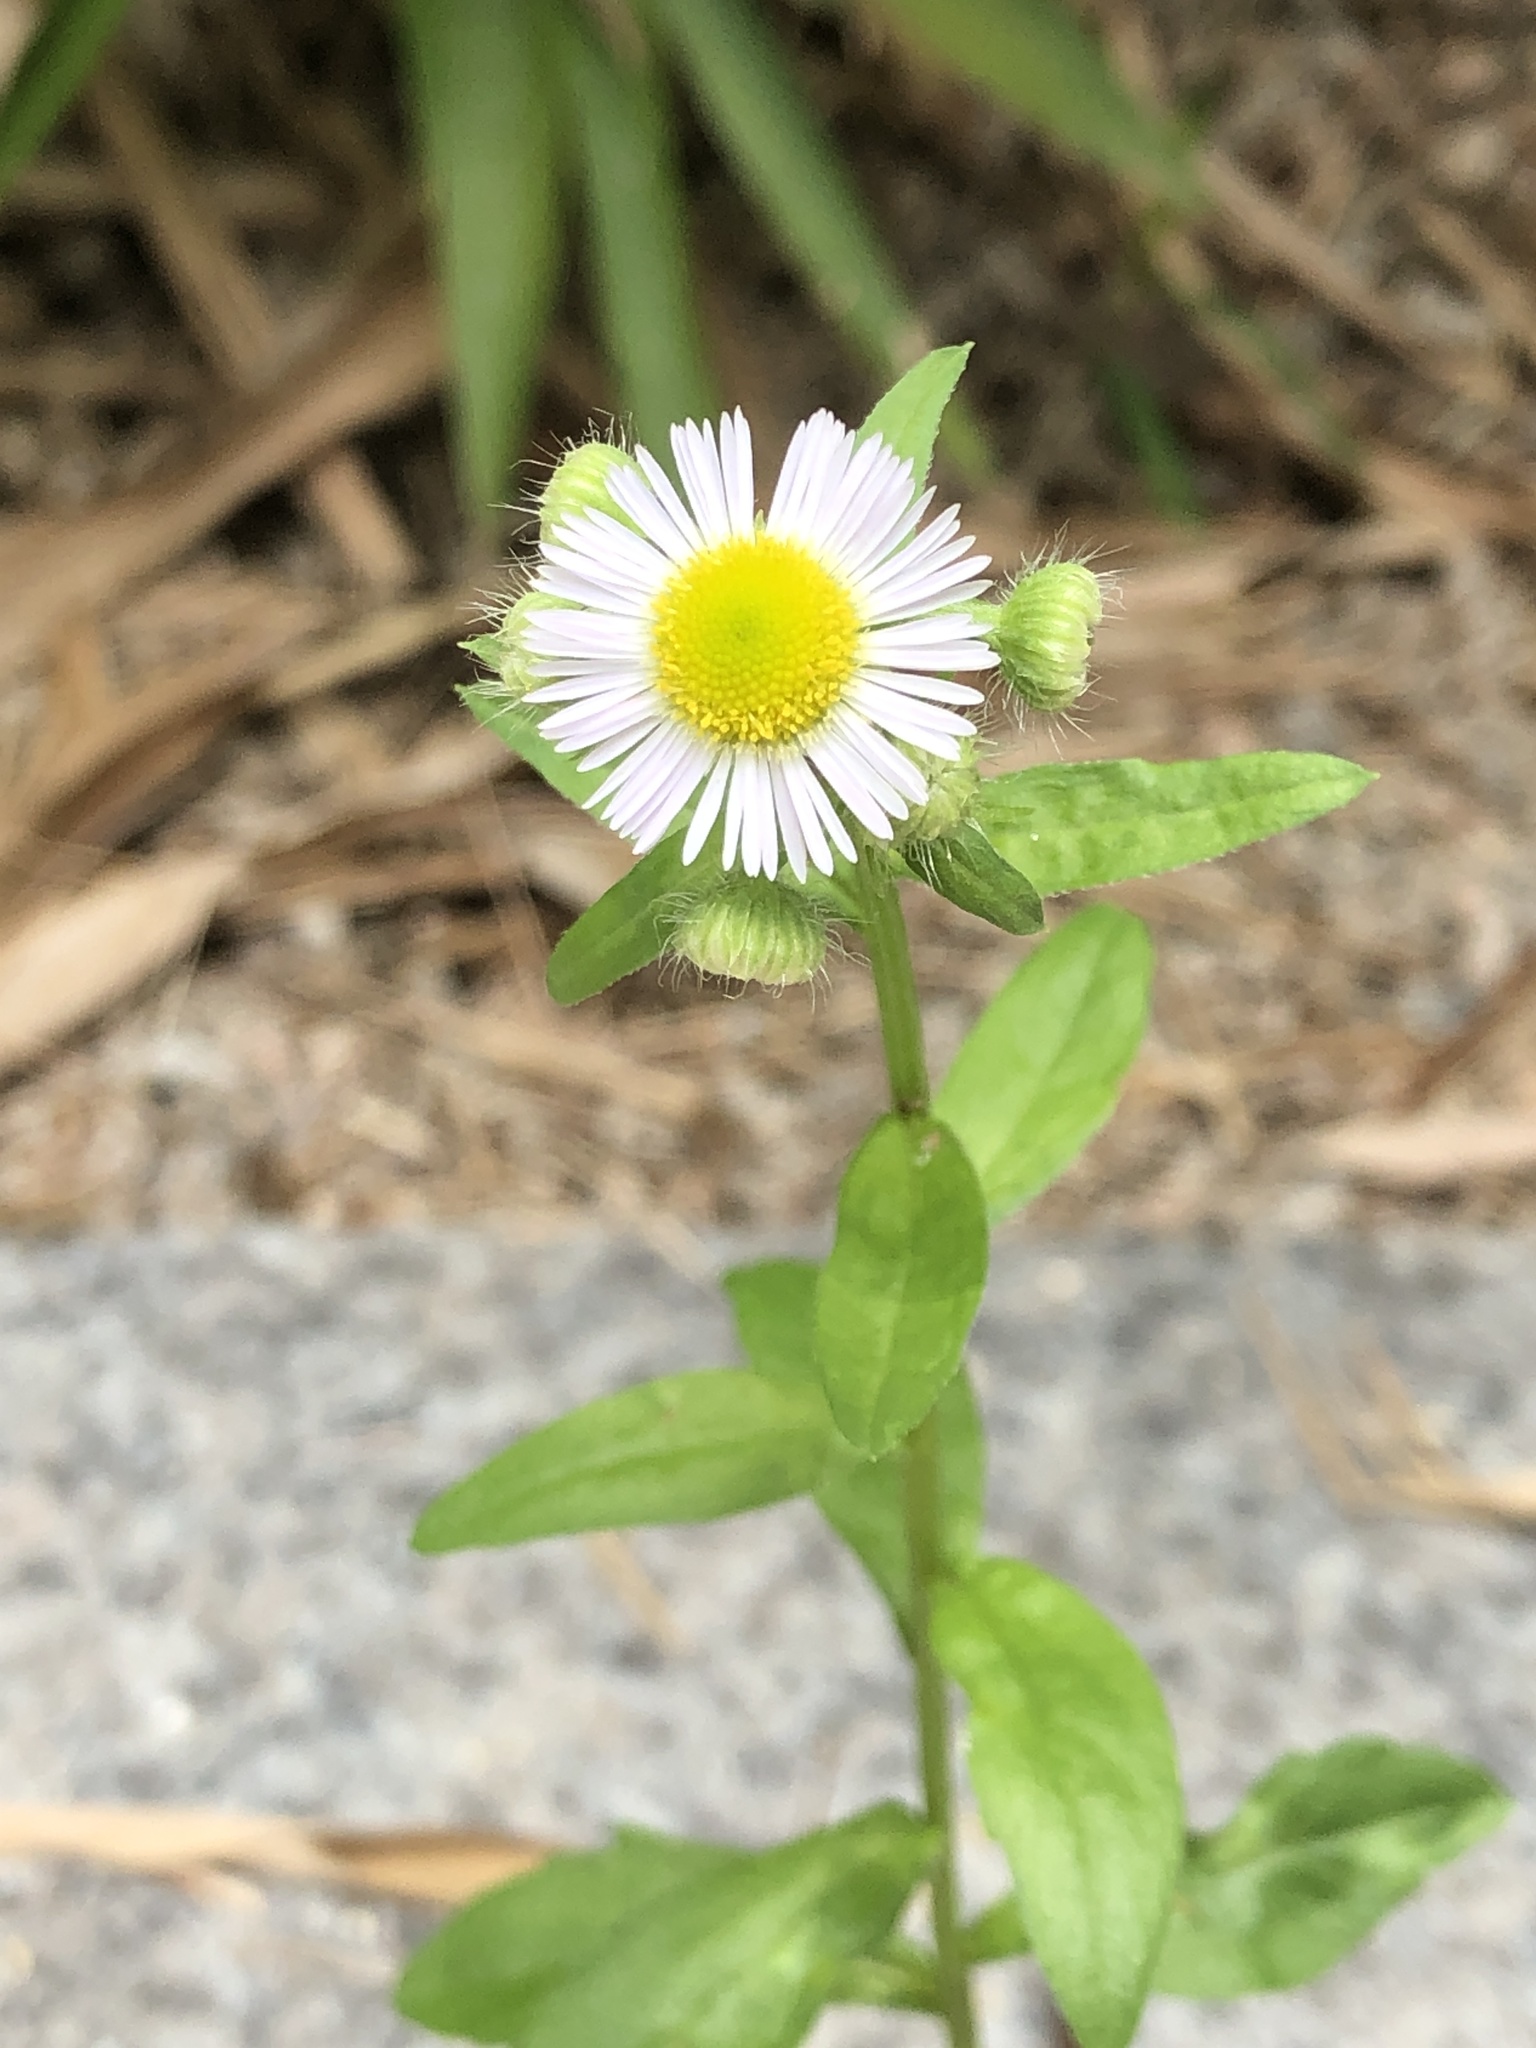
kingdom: Plantae
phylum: Tracheophyta
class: Magnoliopsida
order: Asterales
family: Asteraceae
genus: Erigeron
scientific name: Erigeron annuus
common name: Tall fleabane
